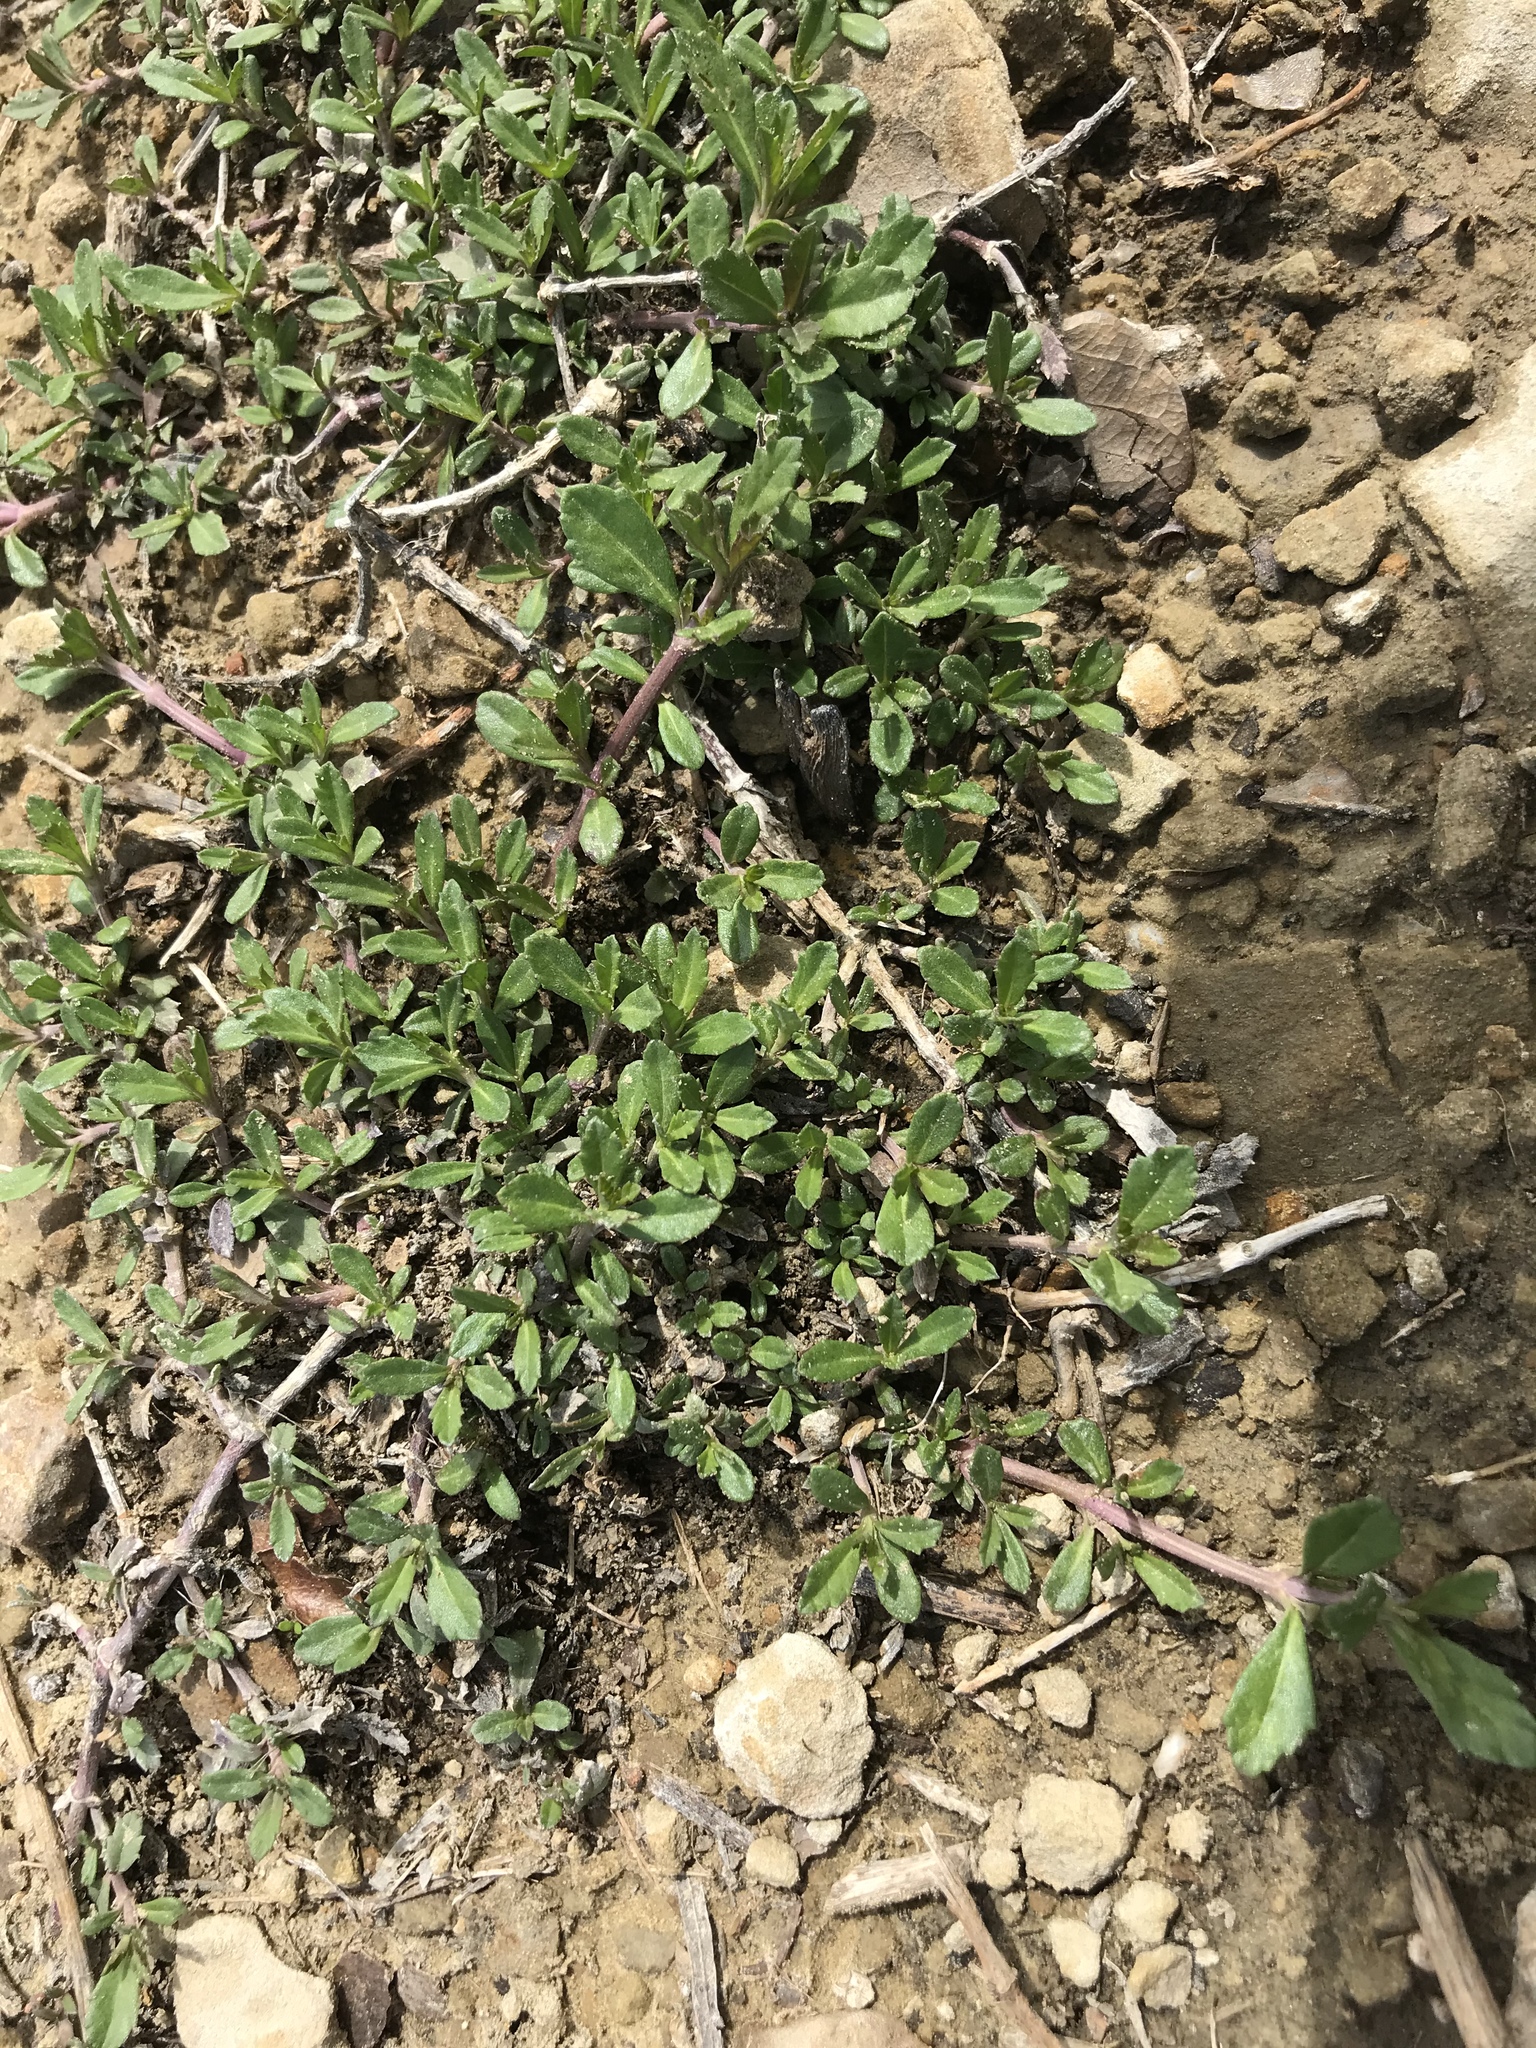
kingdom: Plantae
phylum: Tracheophyta
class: Magnoliopsida
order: Lamiales
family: Verbenaceae
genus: Phyla
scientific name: Phyla nodiflora
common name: Frogfruit
